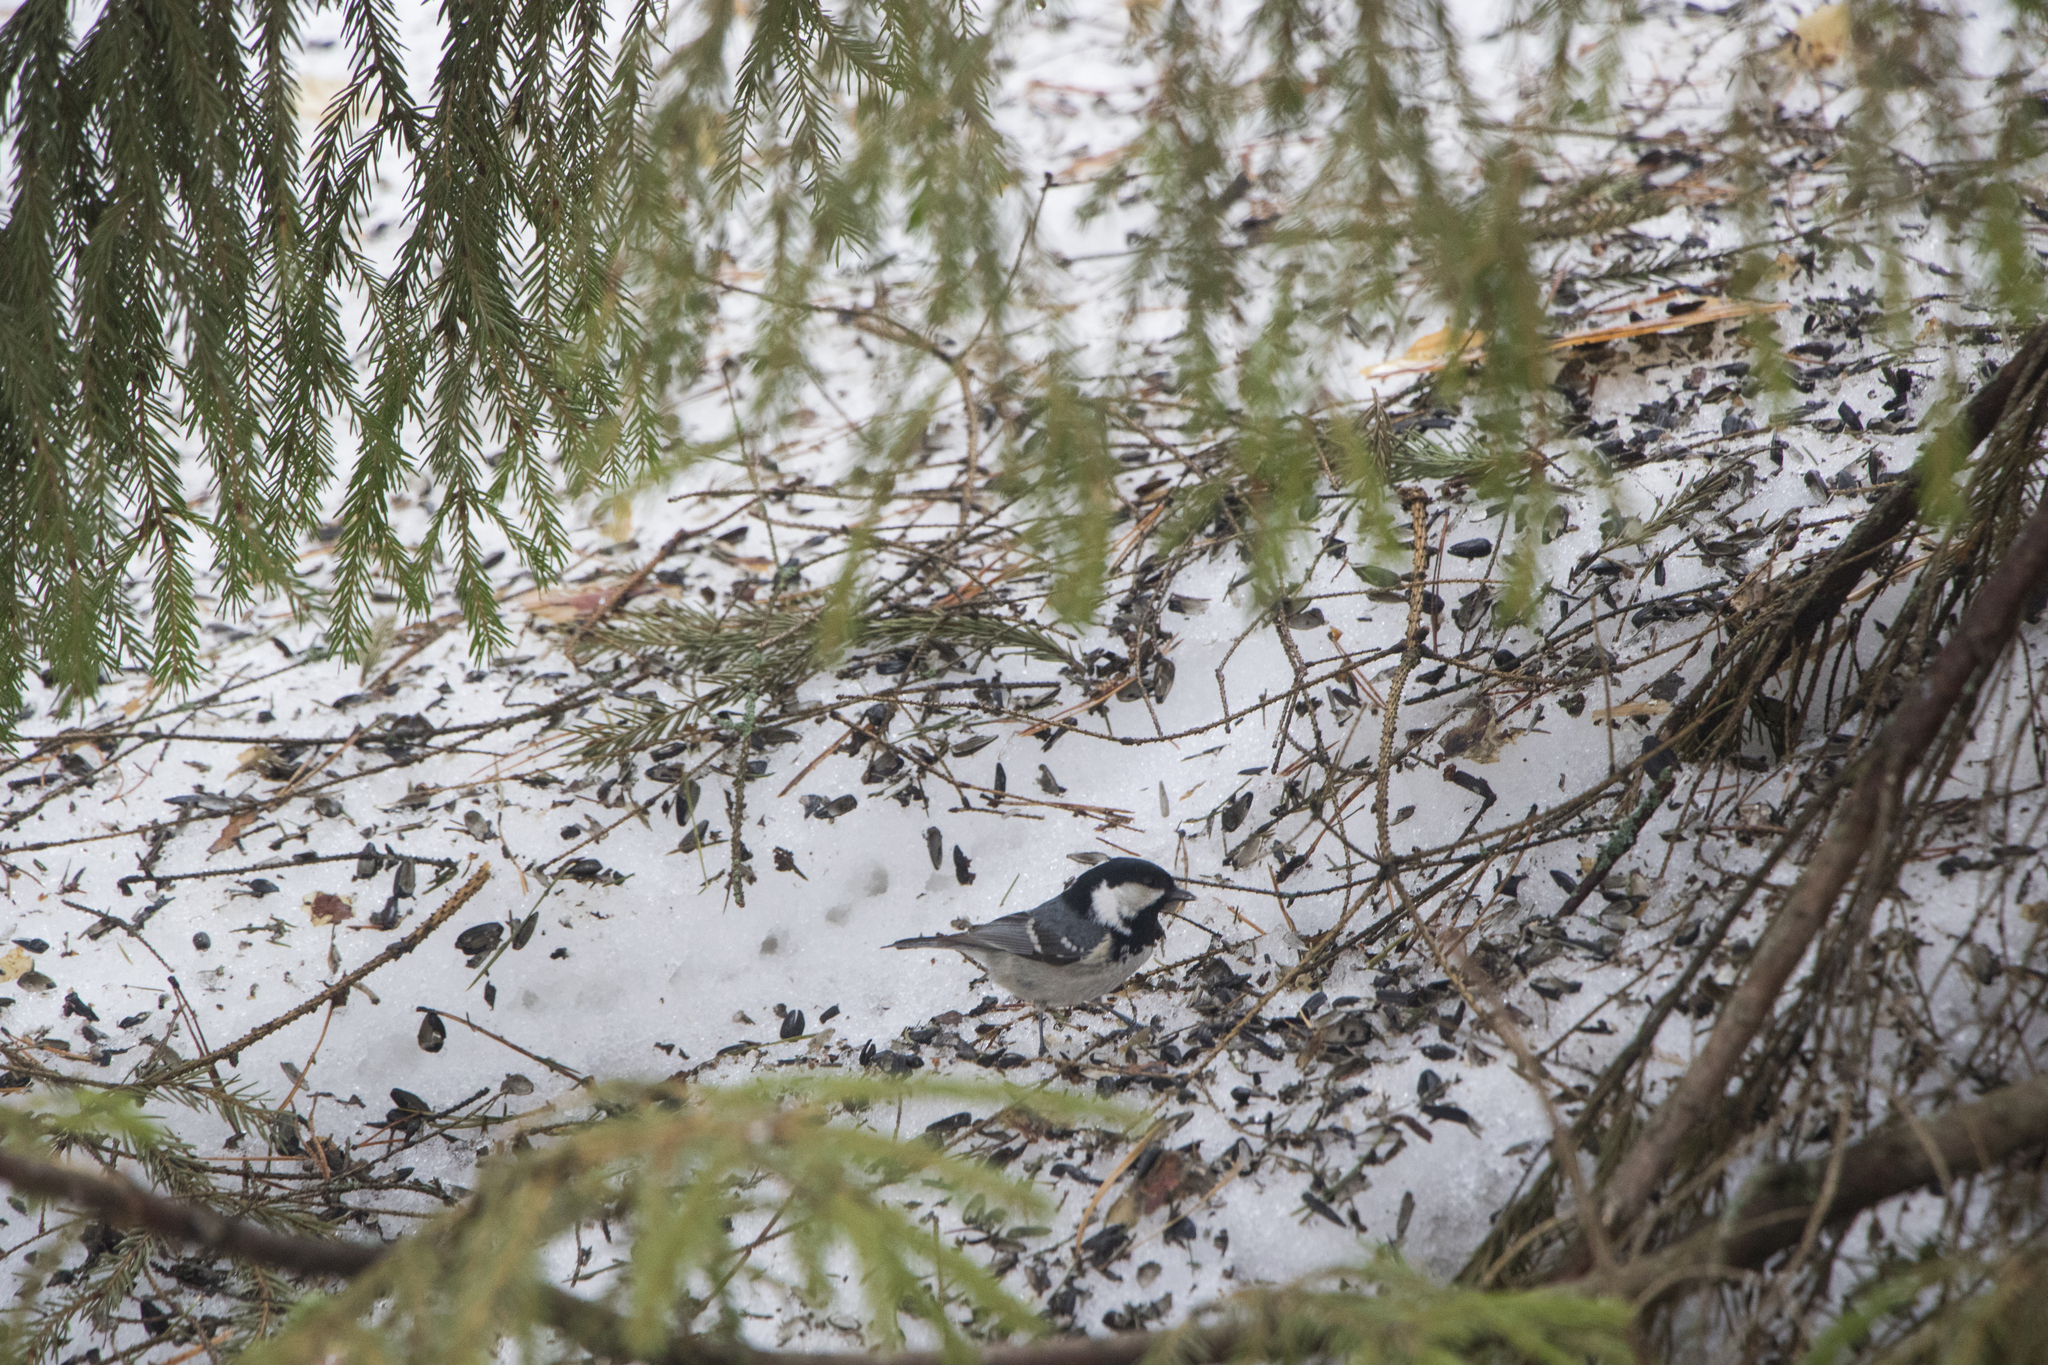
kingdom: Animalia
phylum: Chordata
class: Aves
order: Passeriformes
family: Paridae
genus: Periparus
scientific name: Periparus ater
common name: Coal tit
